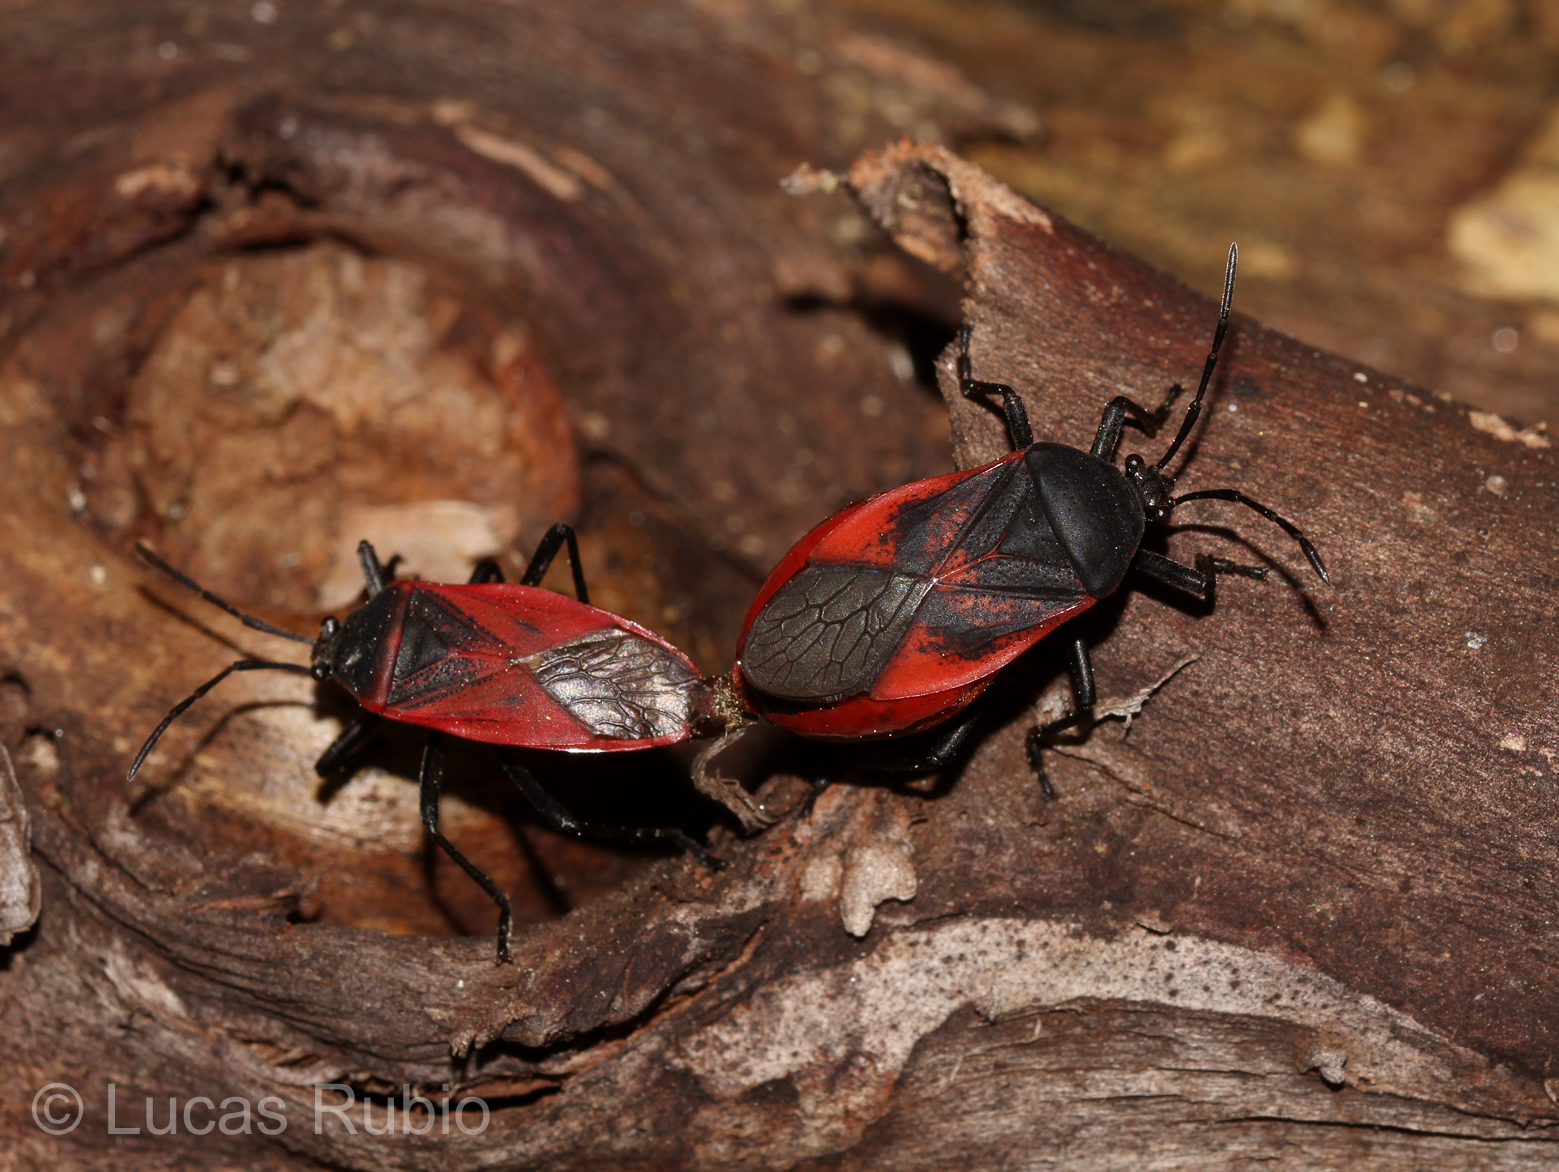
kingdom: Animalia
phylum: Arthropoda
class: Insecta
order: Hemiptera
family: Largidae
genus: Largus
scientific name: Largus rufipennis
